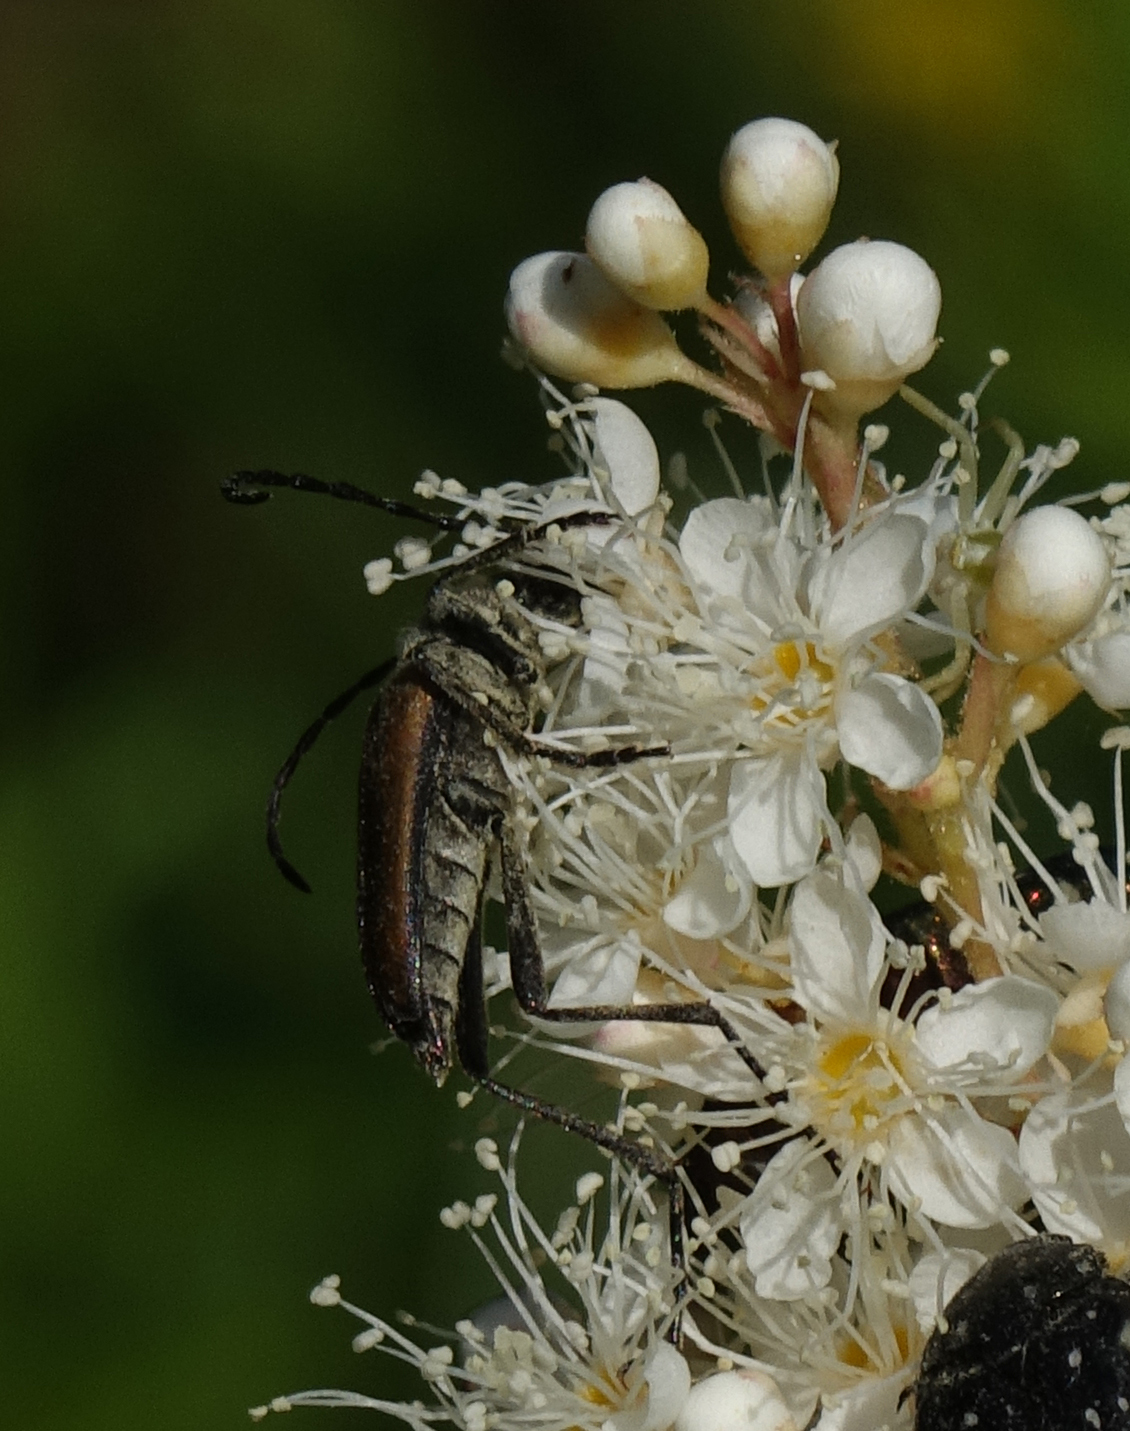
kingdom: Plantae
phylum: Tracheophyta
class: Magnoliopsida
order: Rosales
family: Rosaceae
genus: Sorbaria
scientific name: Sorbaria sorbifolia
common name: False spiraea
